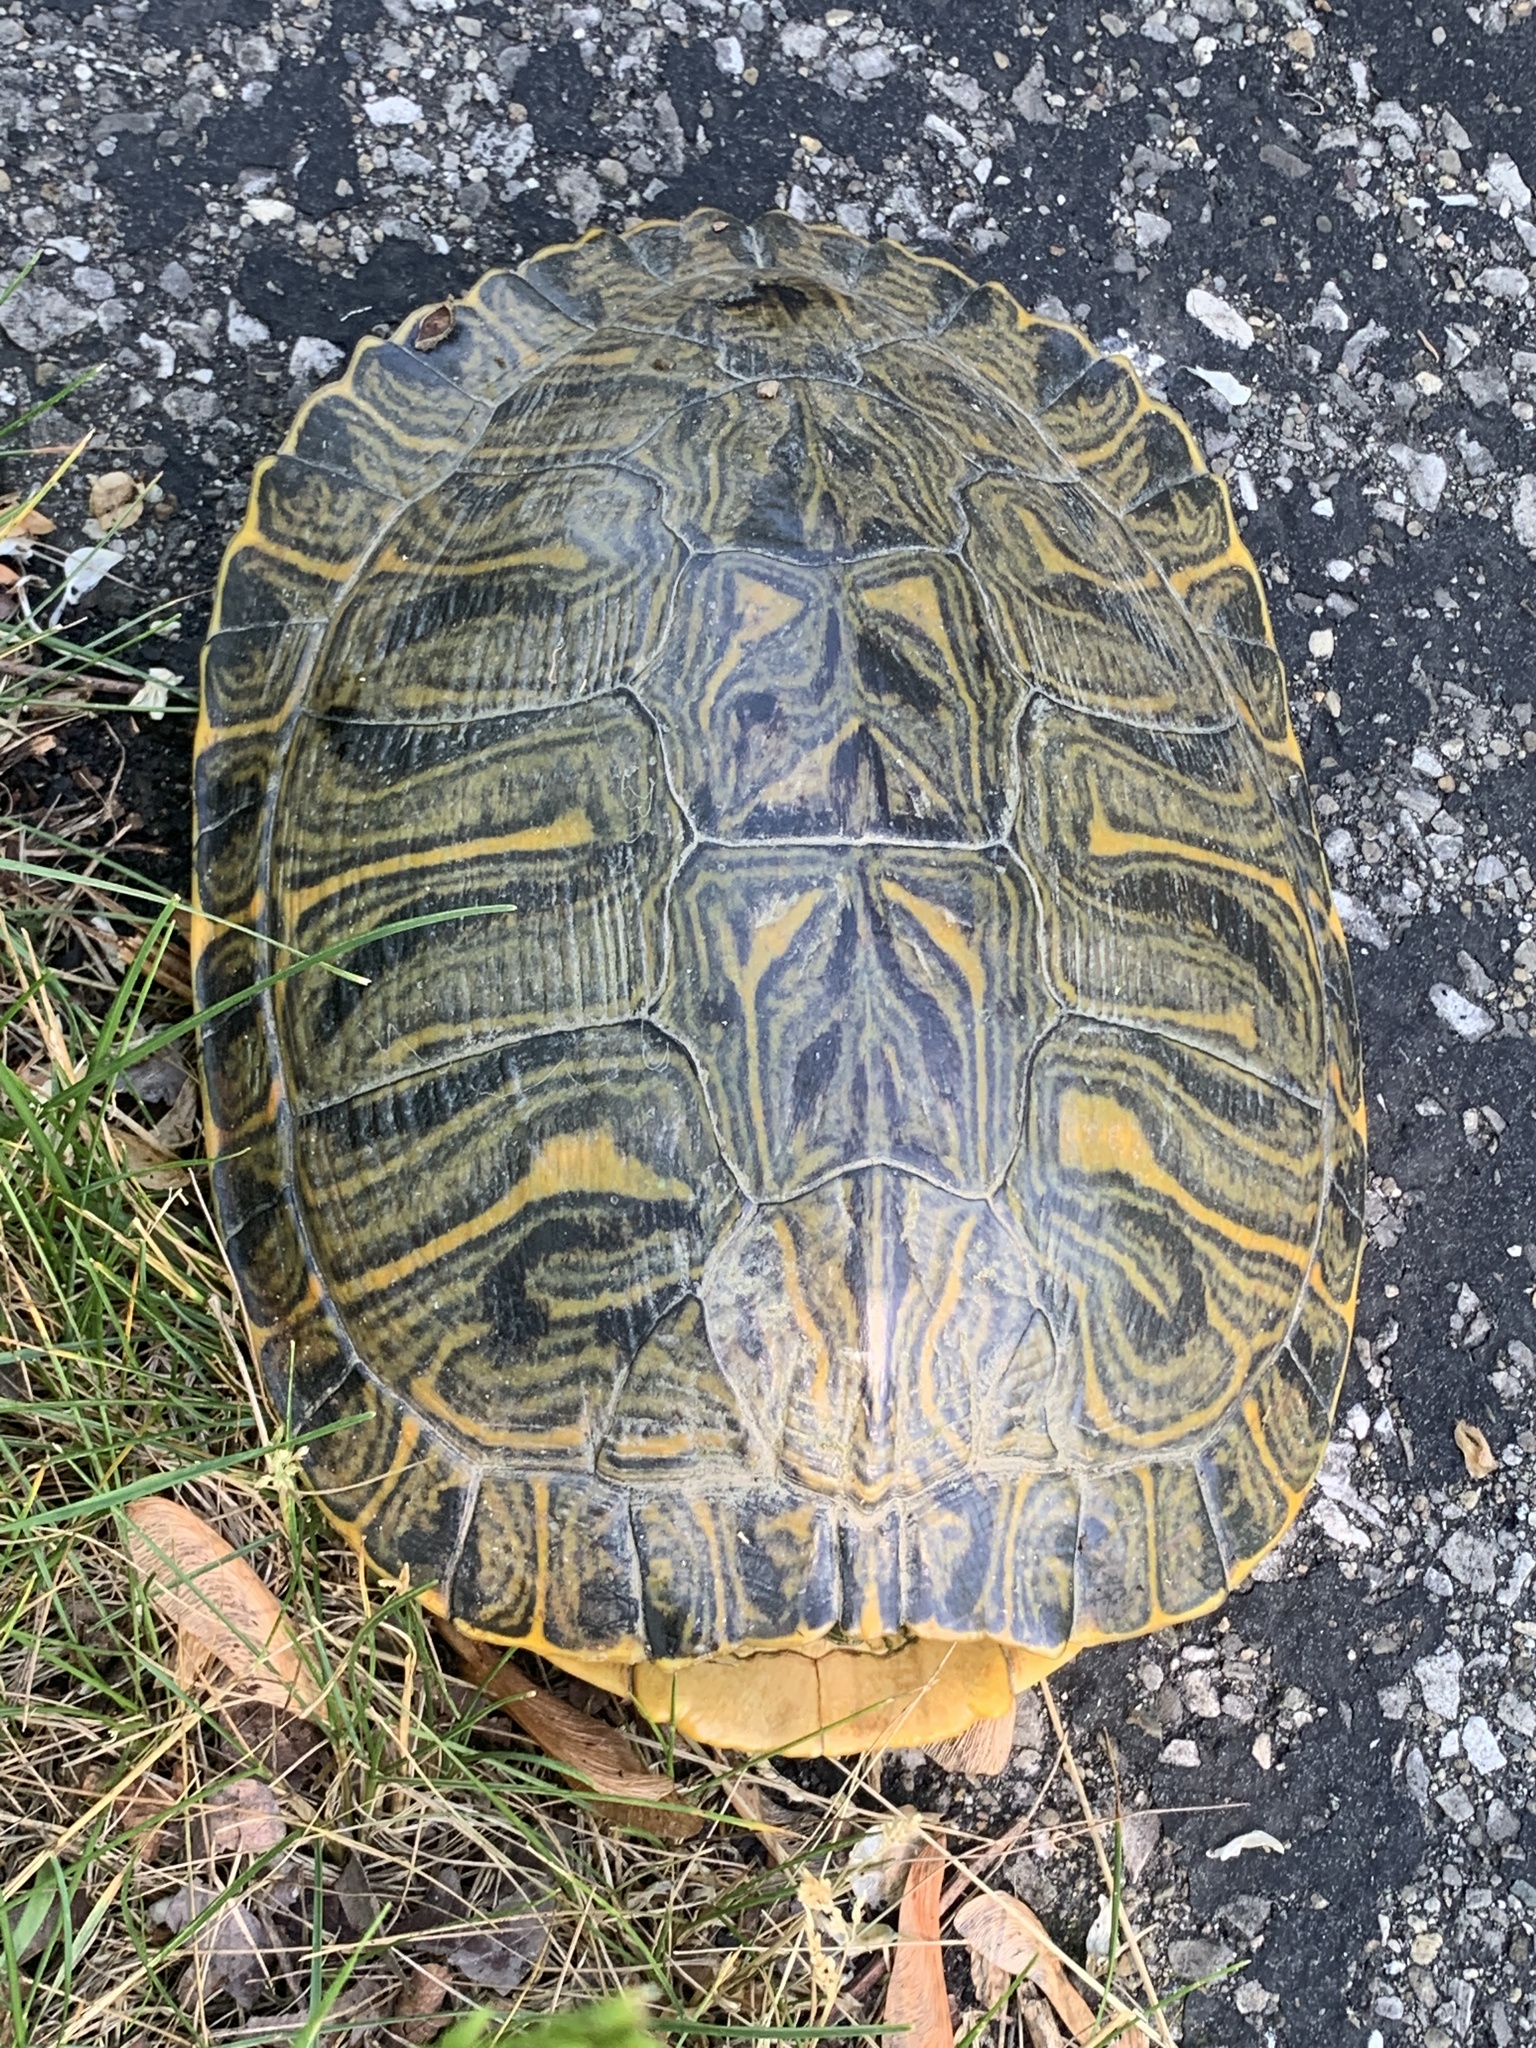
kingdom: Animalia
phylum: Chordata
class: Testudines
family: Emydidae
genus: Trachemys
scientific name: Trachemys scripta
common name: Slider
